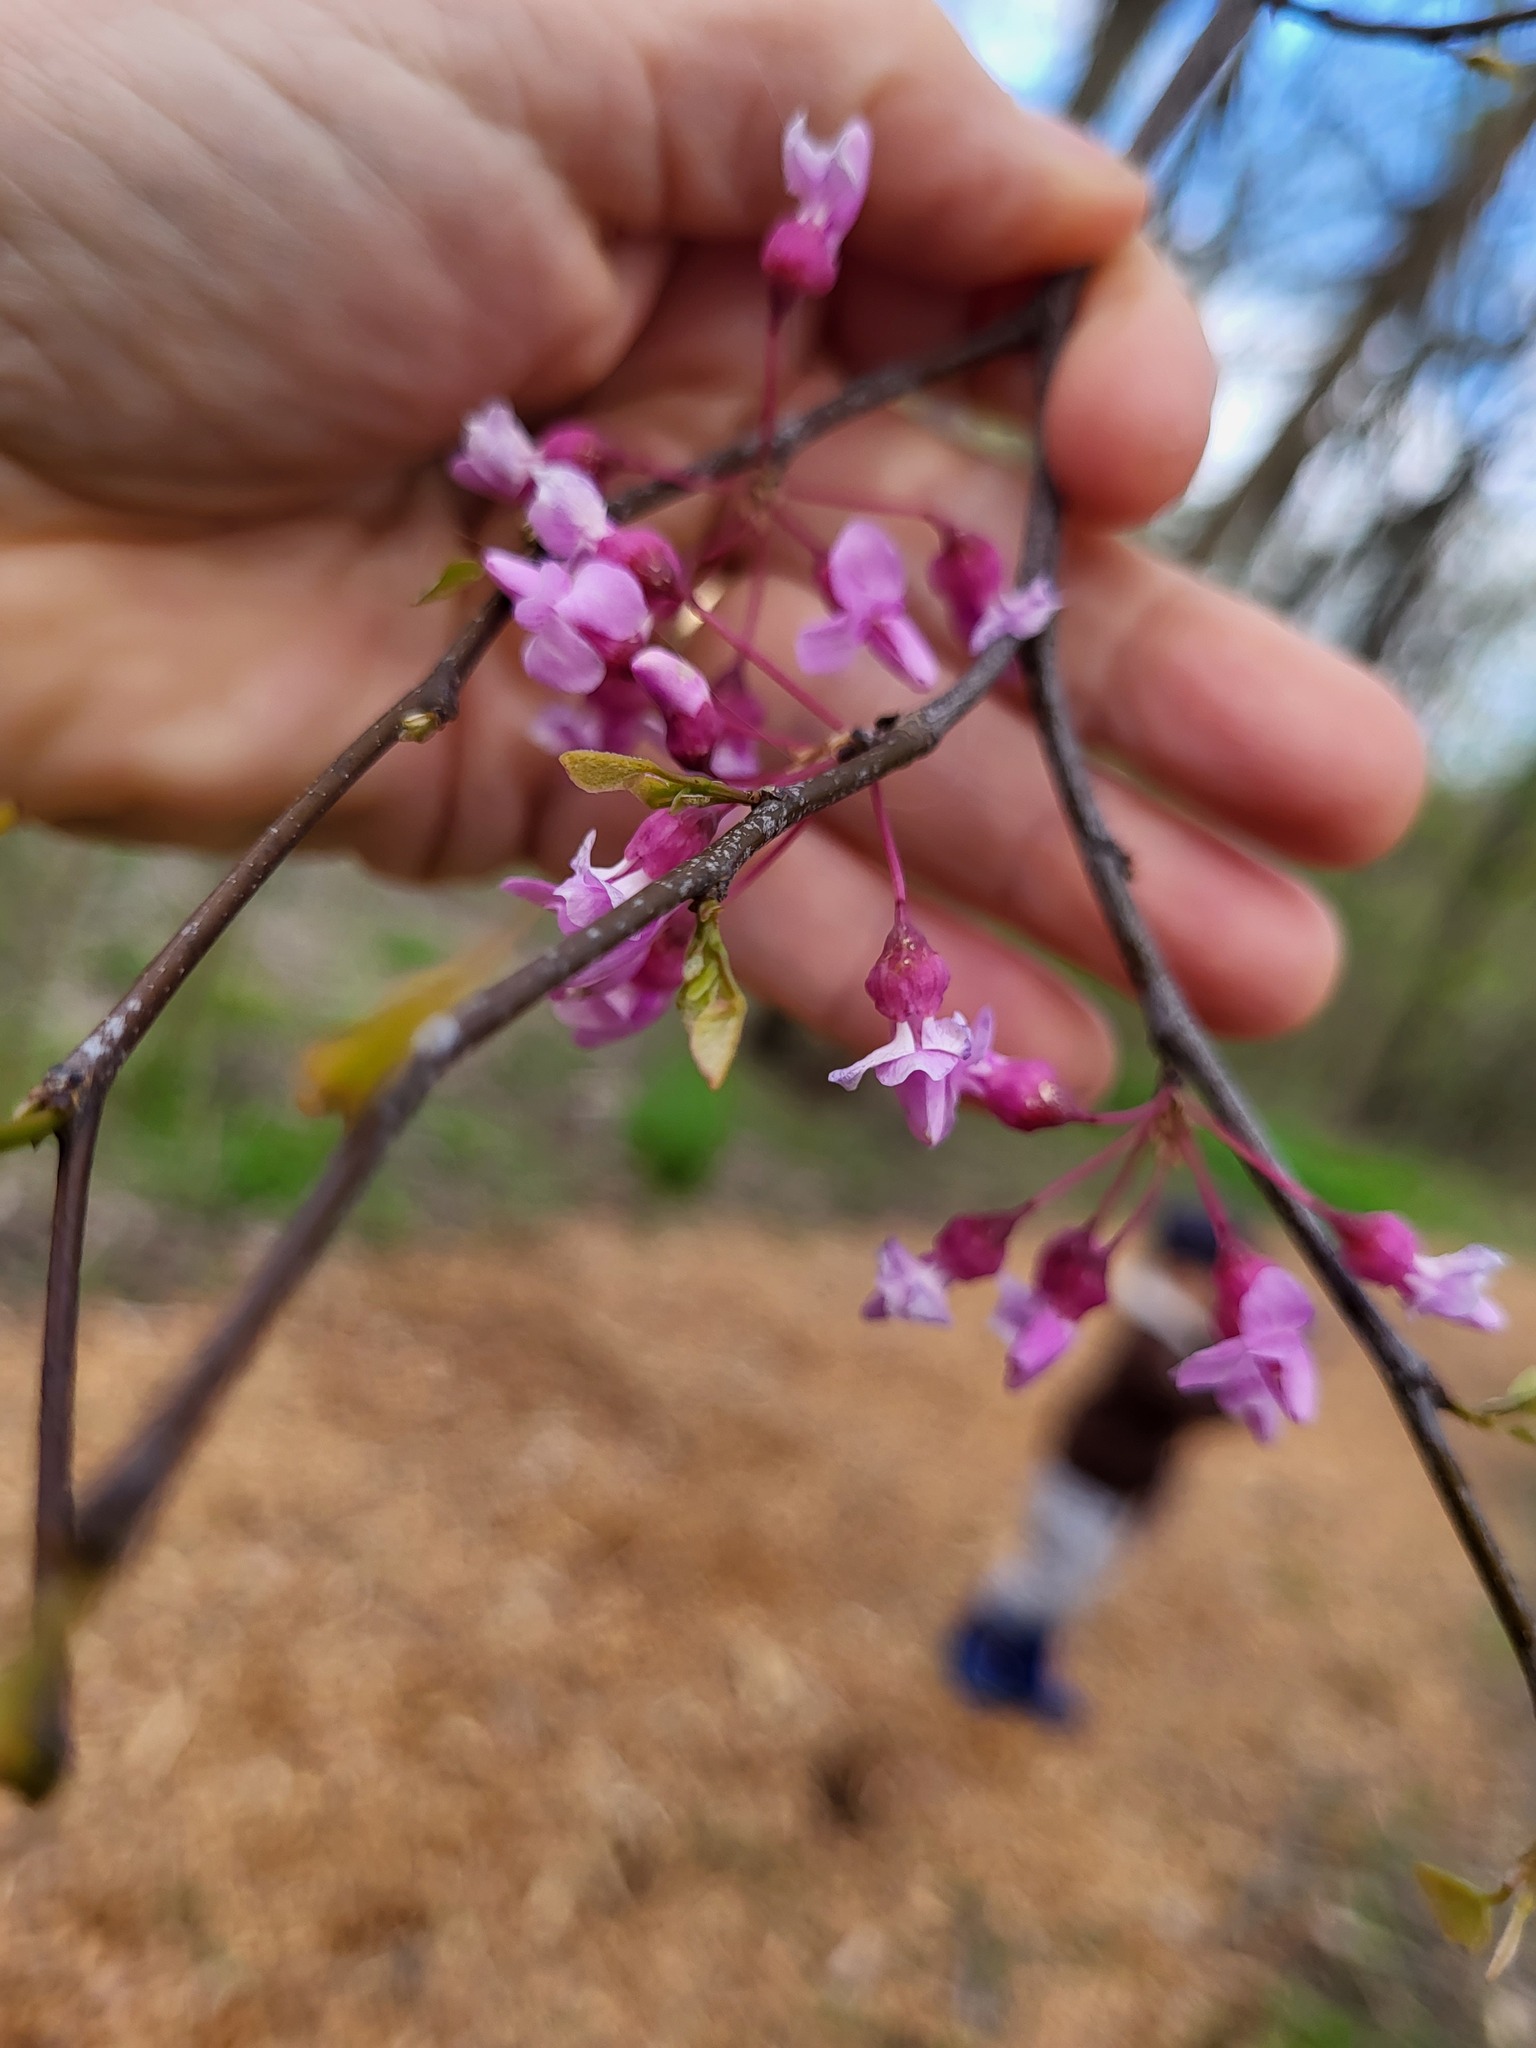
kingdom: Plantae
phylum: Tracheophyta
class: Magnoliopsida
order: Fabales
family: Fabaceae
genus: Cercis
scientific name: Cercis canadensis
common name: Eastern redbud
